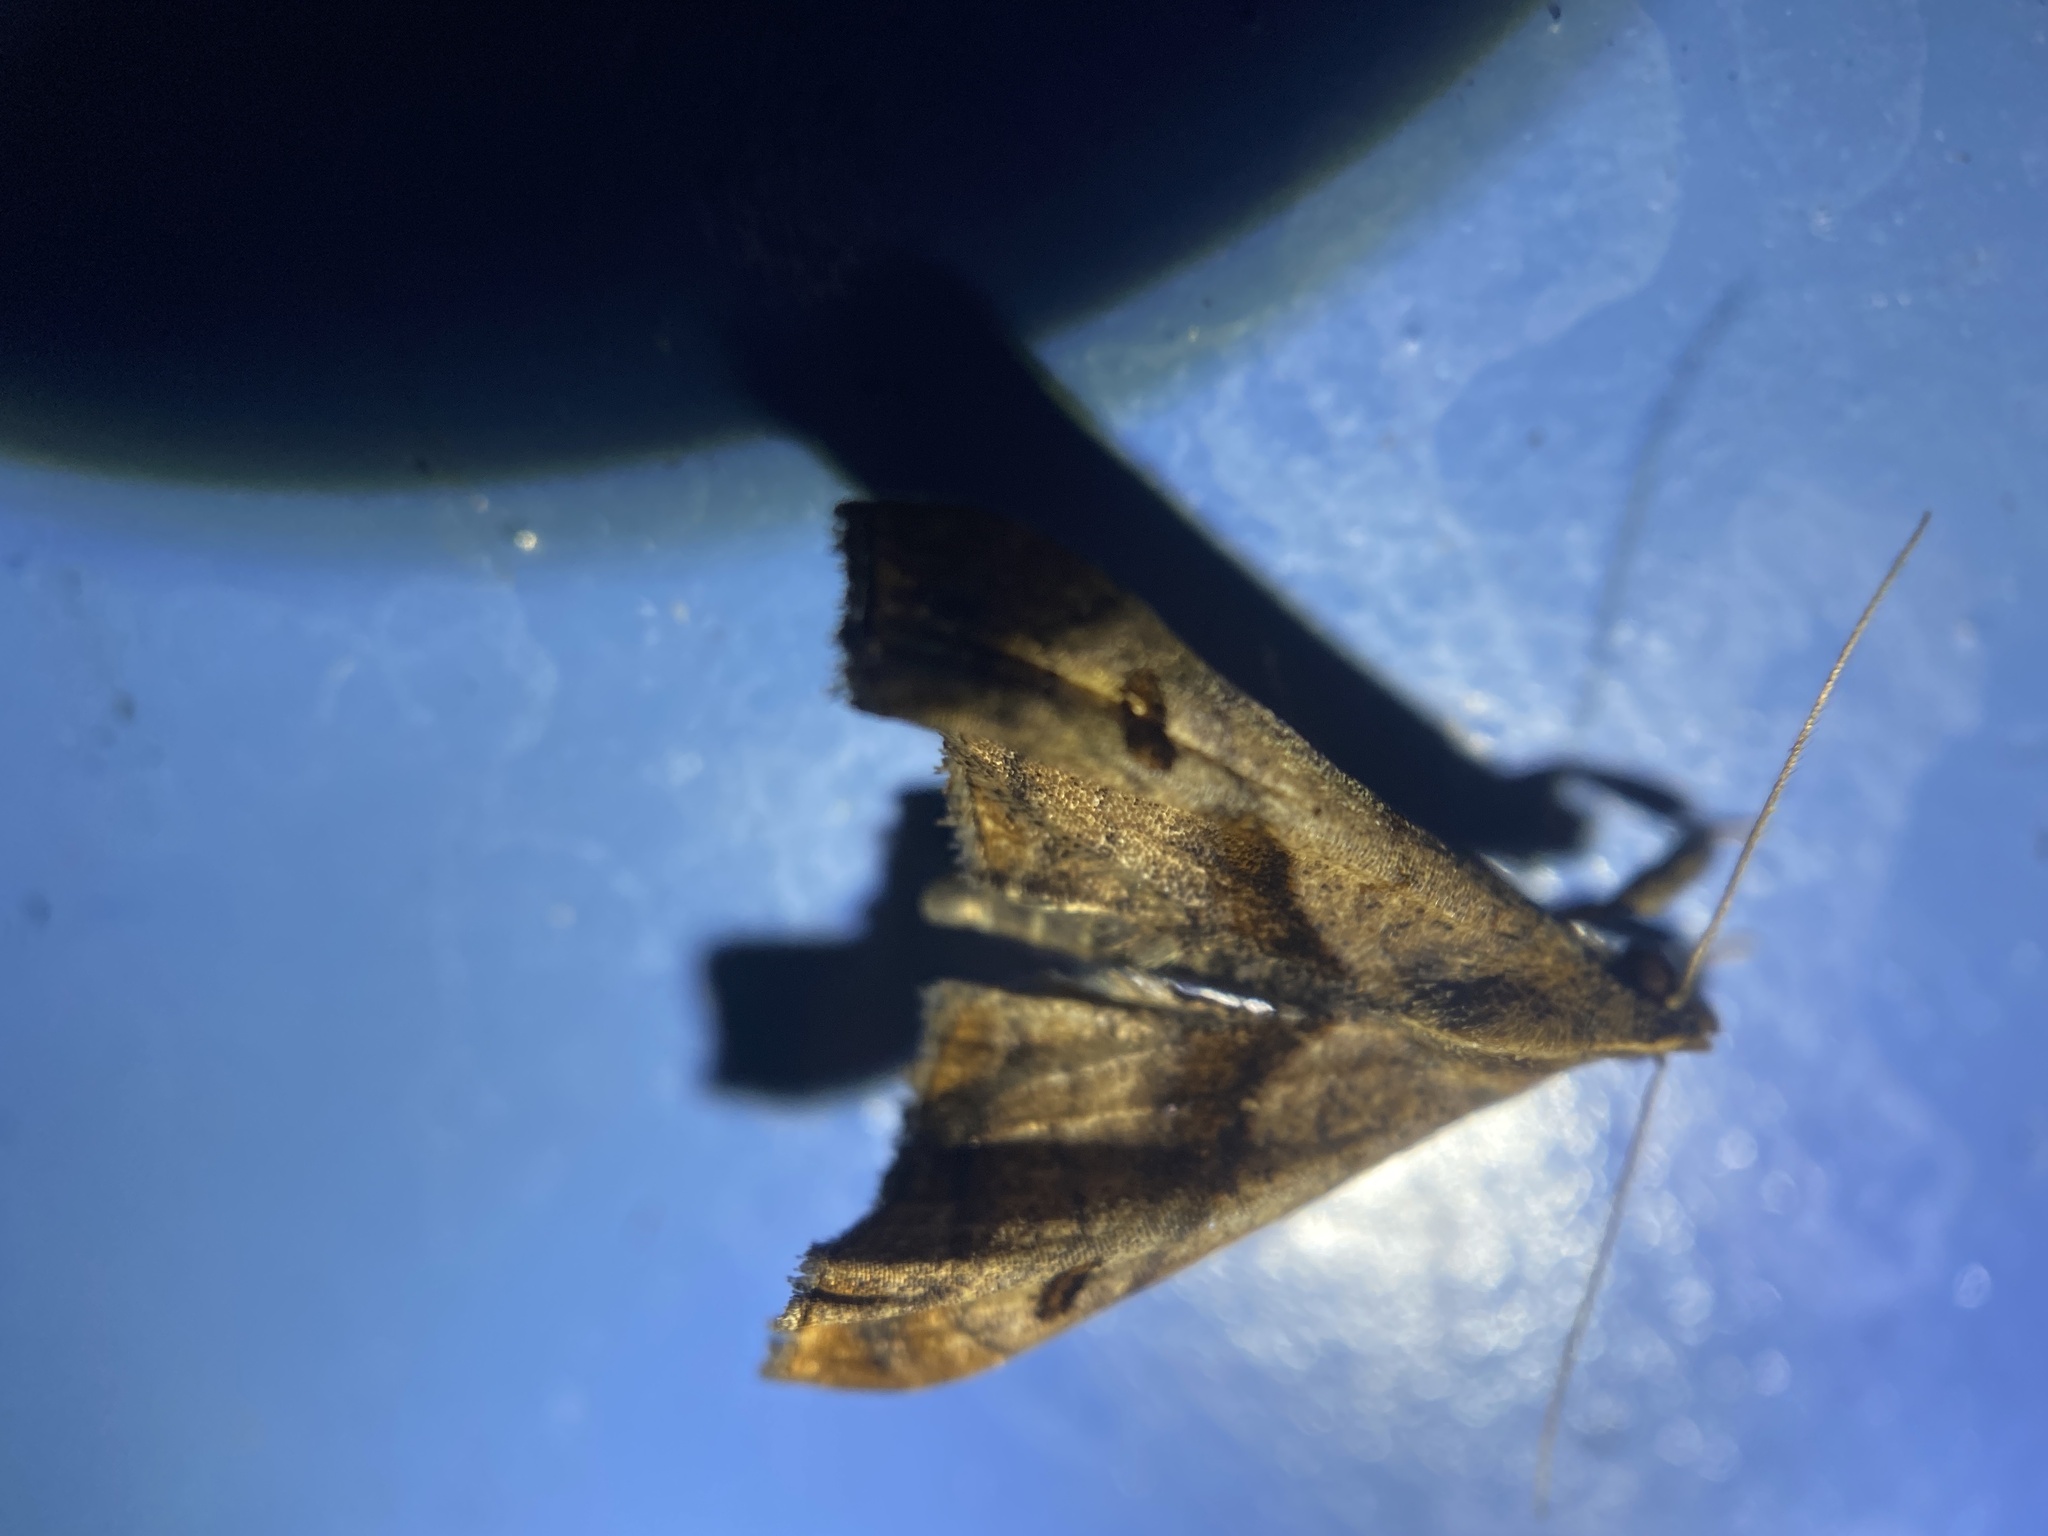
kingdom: Animalia
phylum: Arthropoda
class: Insecta
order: Lepidoptera
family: Erebidae
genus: Palthis
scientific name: Palthis angulalis
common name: Dark-spotted palthis moth
